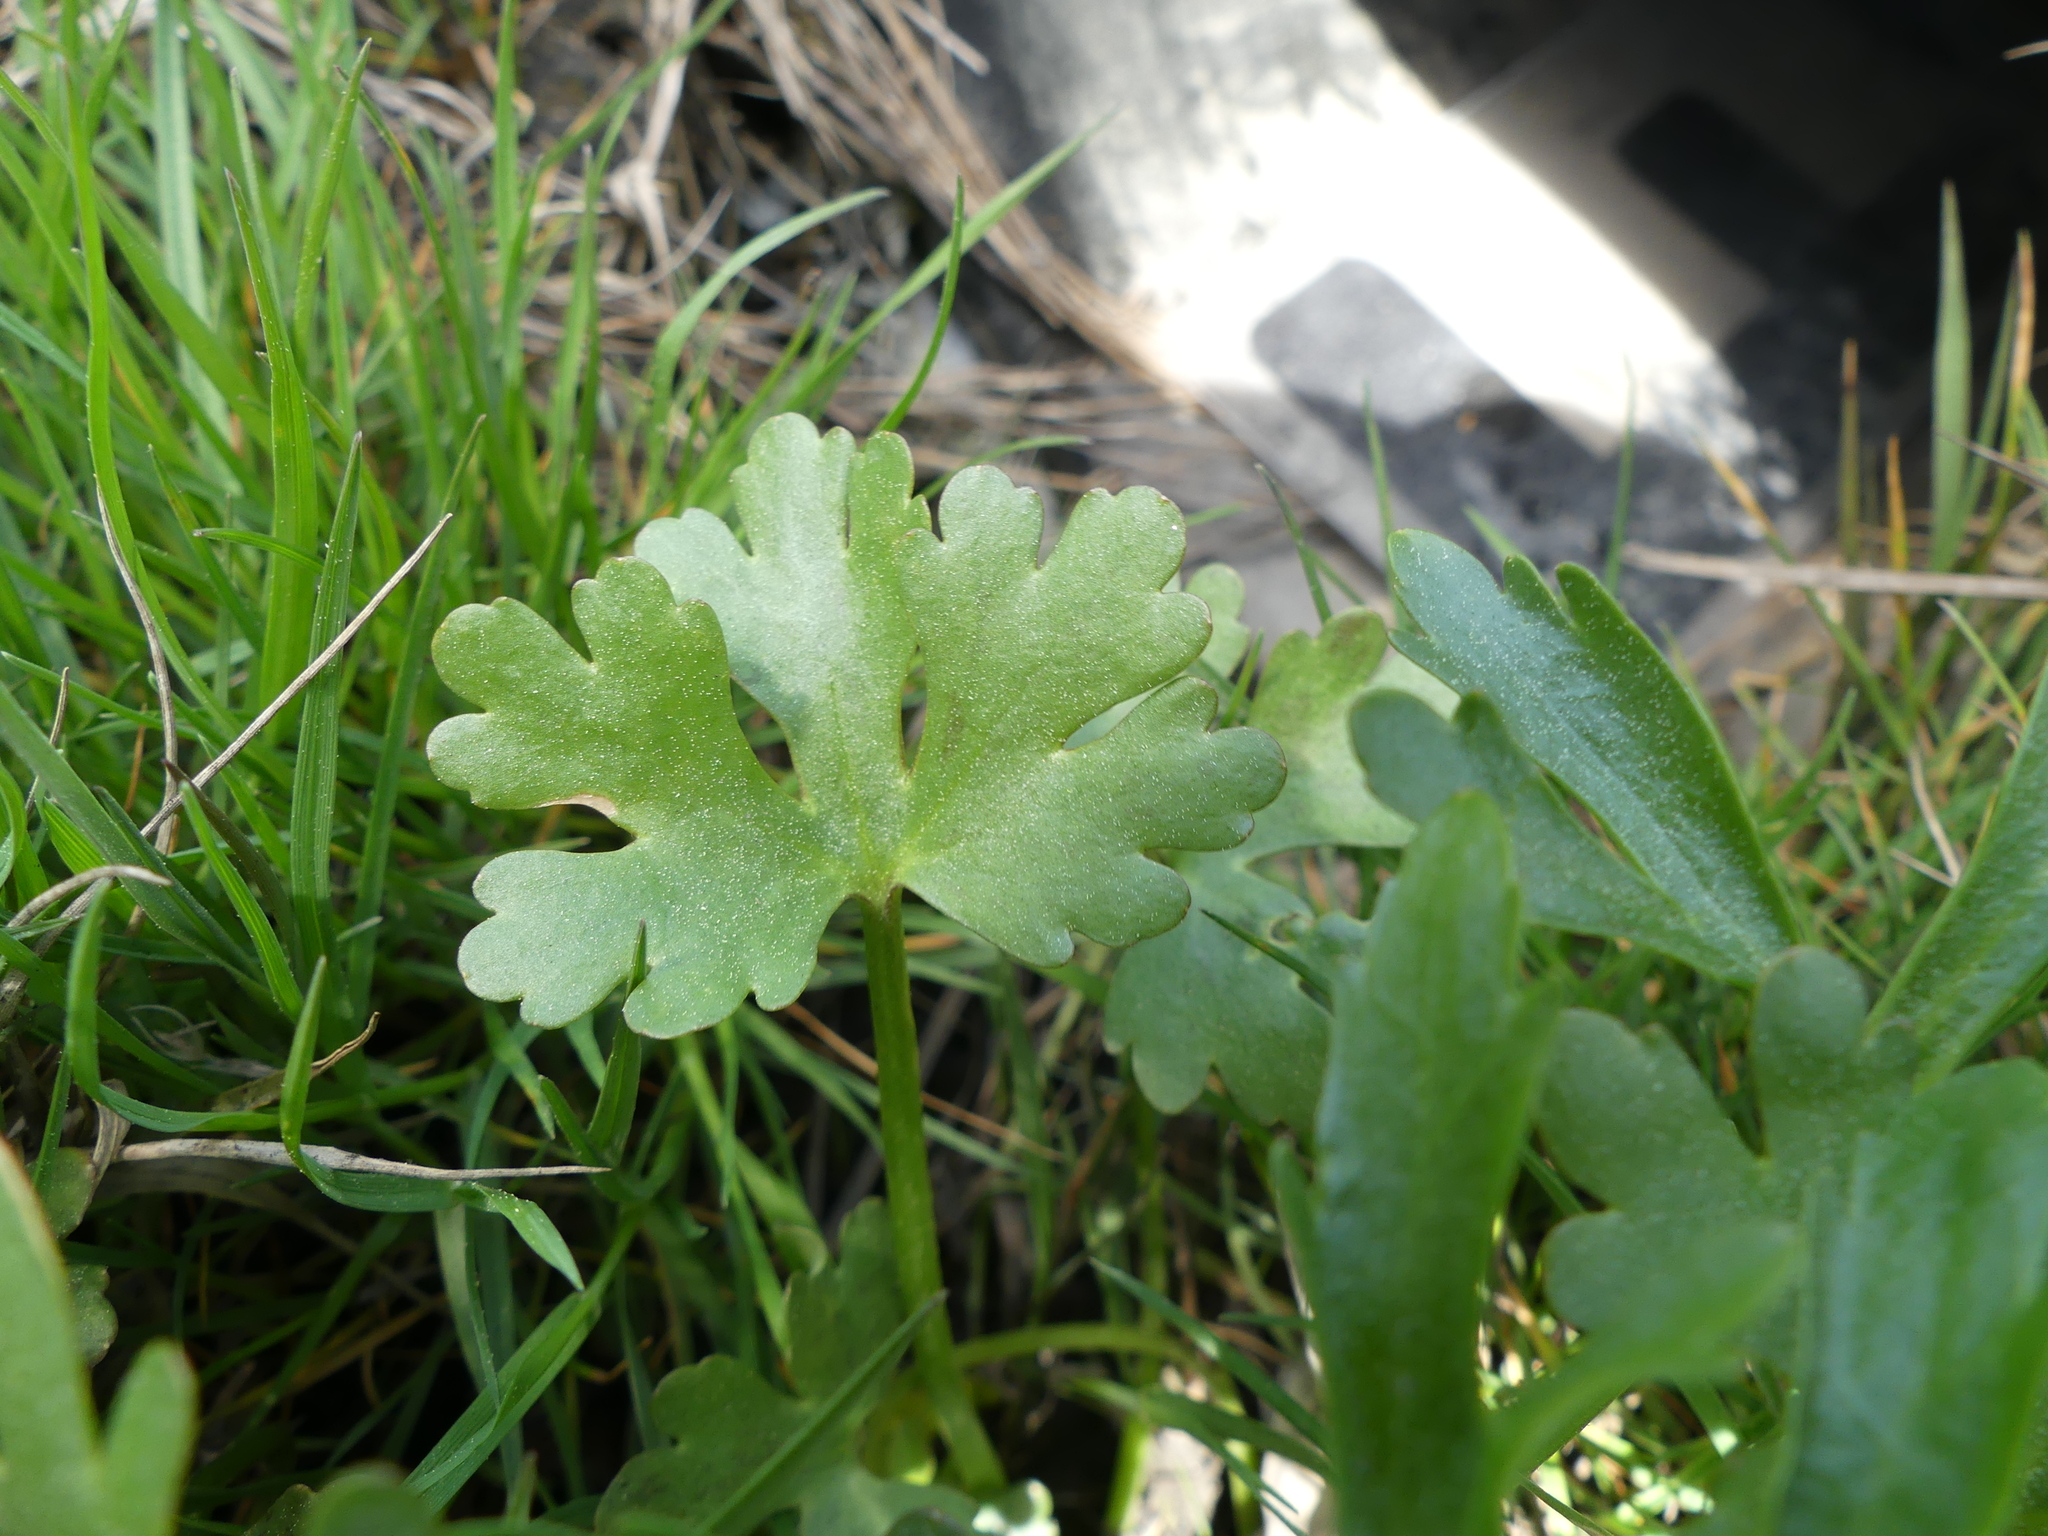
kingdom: Plantae
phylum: Tracheophyta
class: Magnoliopsida
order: Ranunculales
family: Ranunculaceae
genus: Ranunculus
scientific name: Ranunculus sceleratus
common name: Celery-leaved buttercup
